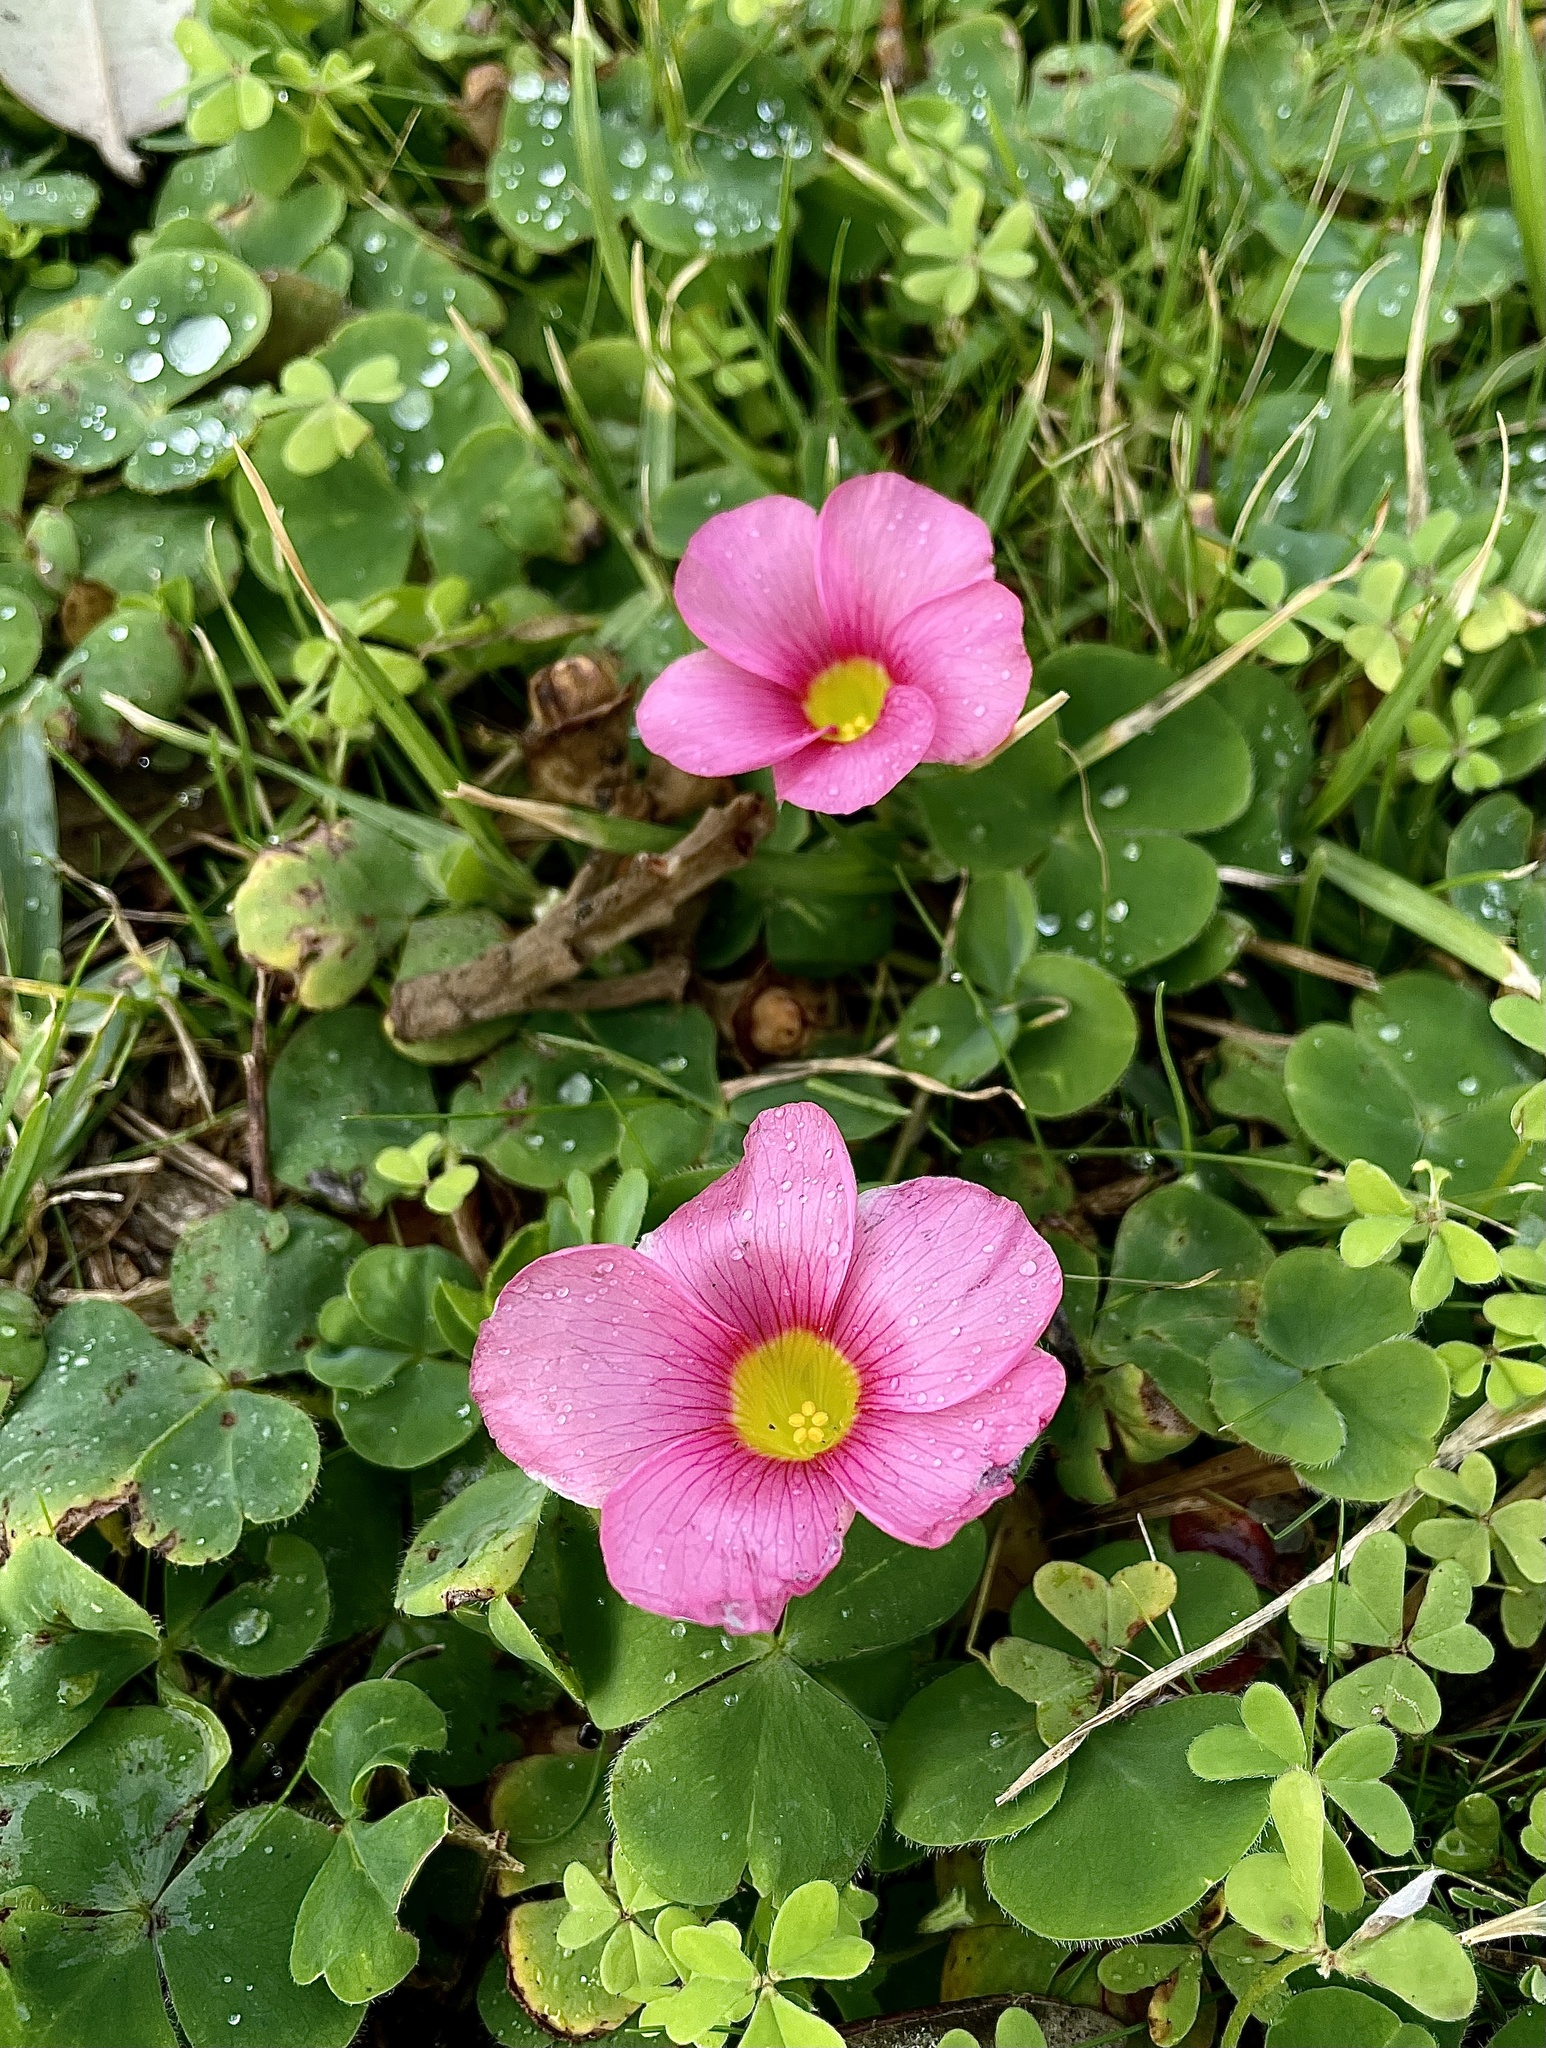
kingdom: Plantae
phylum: Tracheophyta
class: Magnoliopsida
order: Oxalidales
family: Oxalidaceae
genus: Oxalis
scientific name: Oxalis purpurea
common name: Purple woodsorrel
